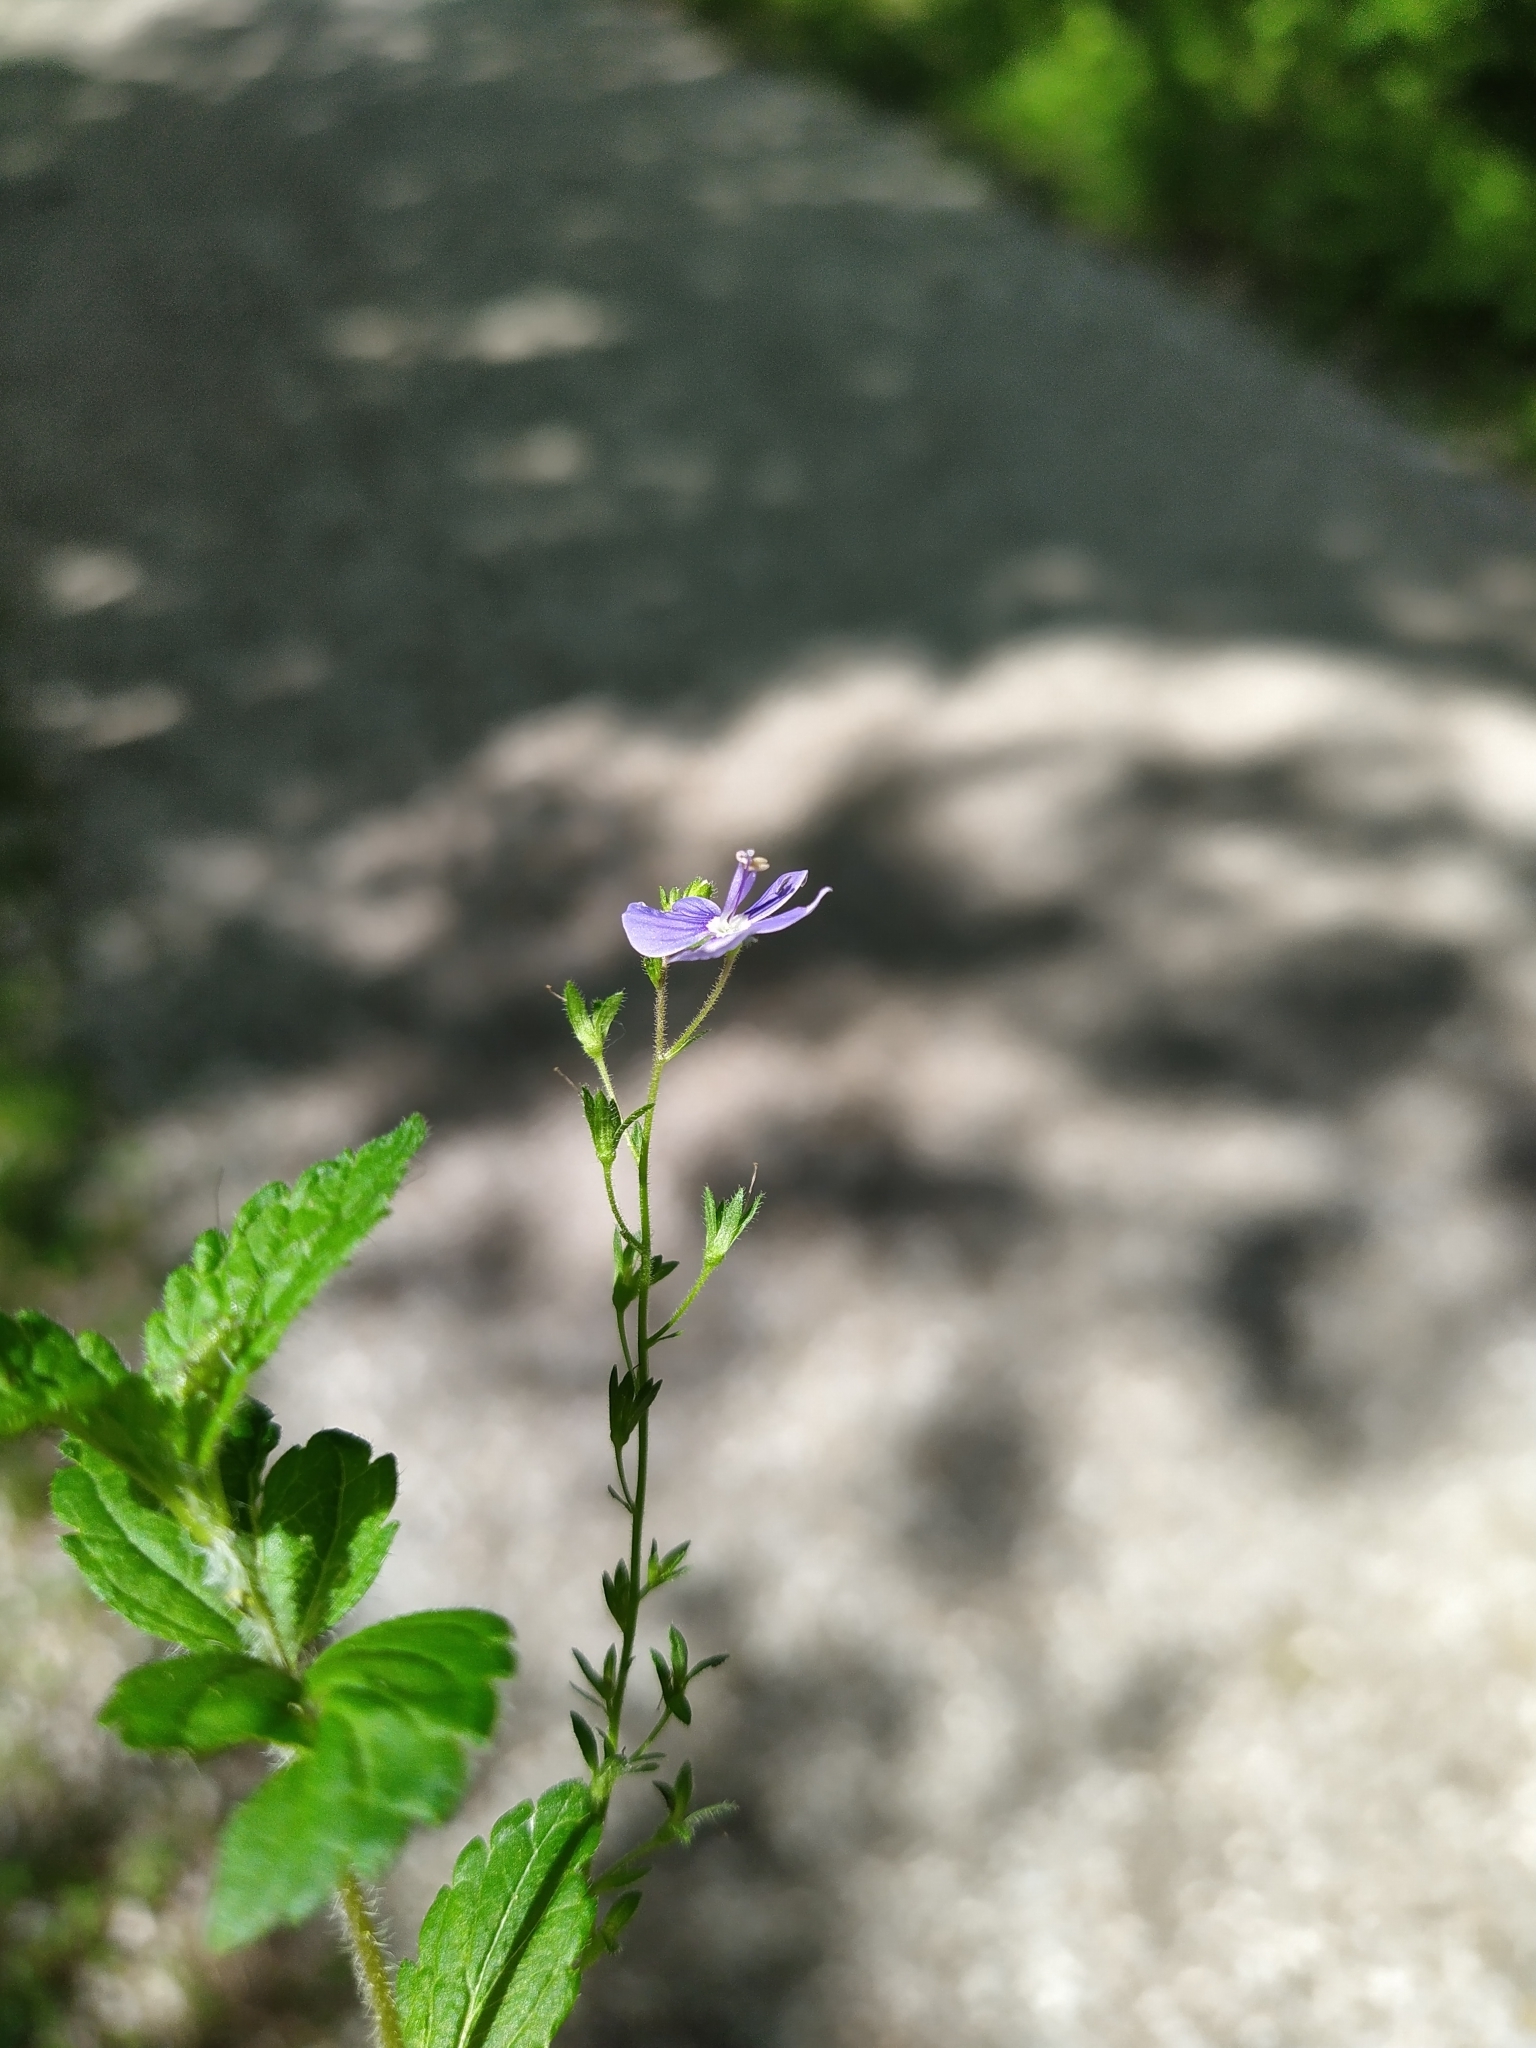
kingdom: Plantae
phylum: Tracheophyta
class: Magnoliopsida
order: Lamiales
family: Plantaginaceae
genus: Veronica
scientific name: Veronica chamaedrys
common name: Germander speedwell
